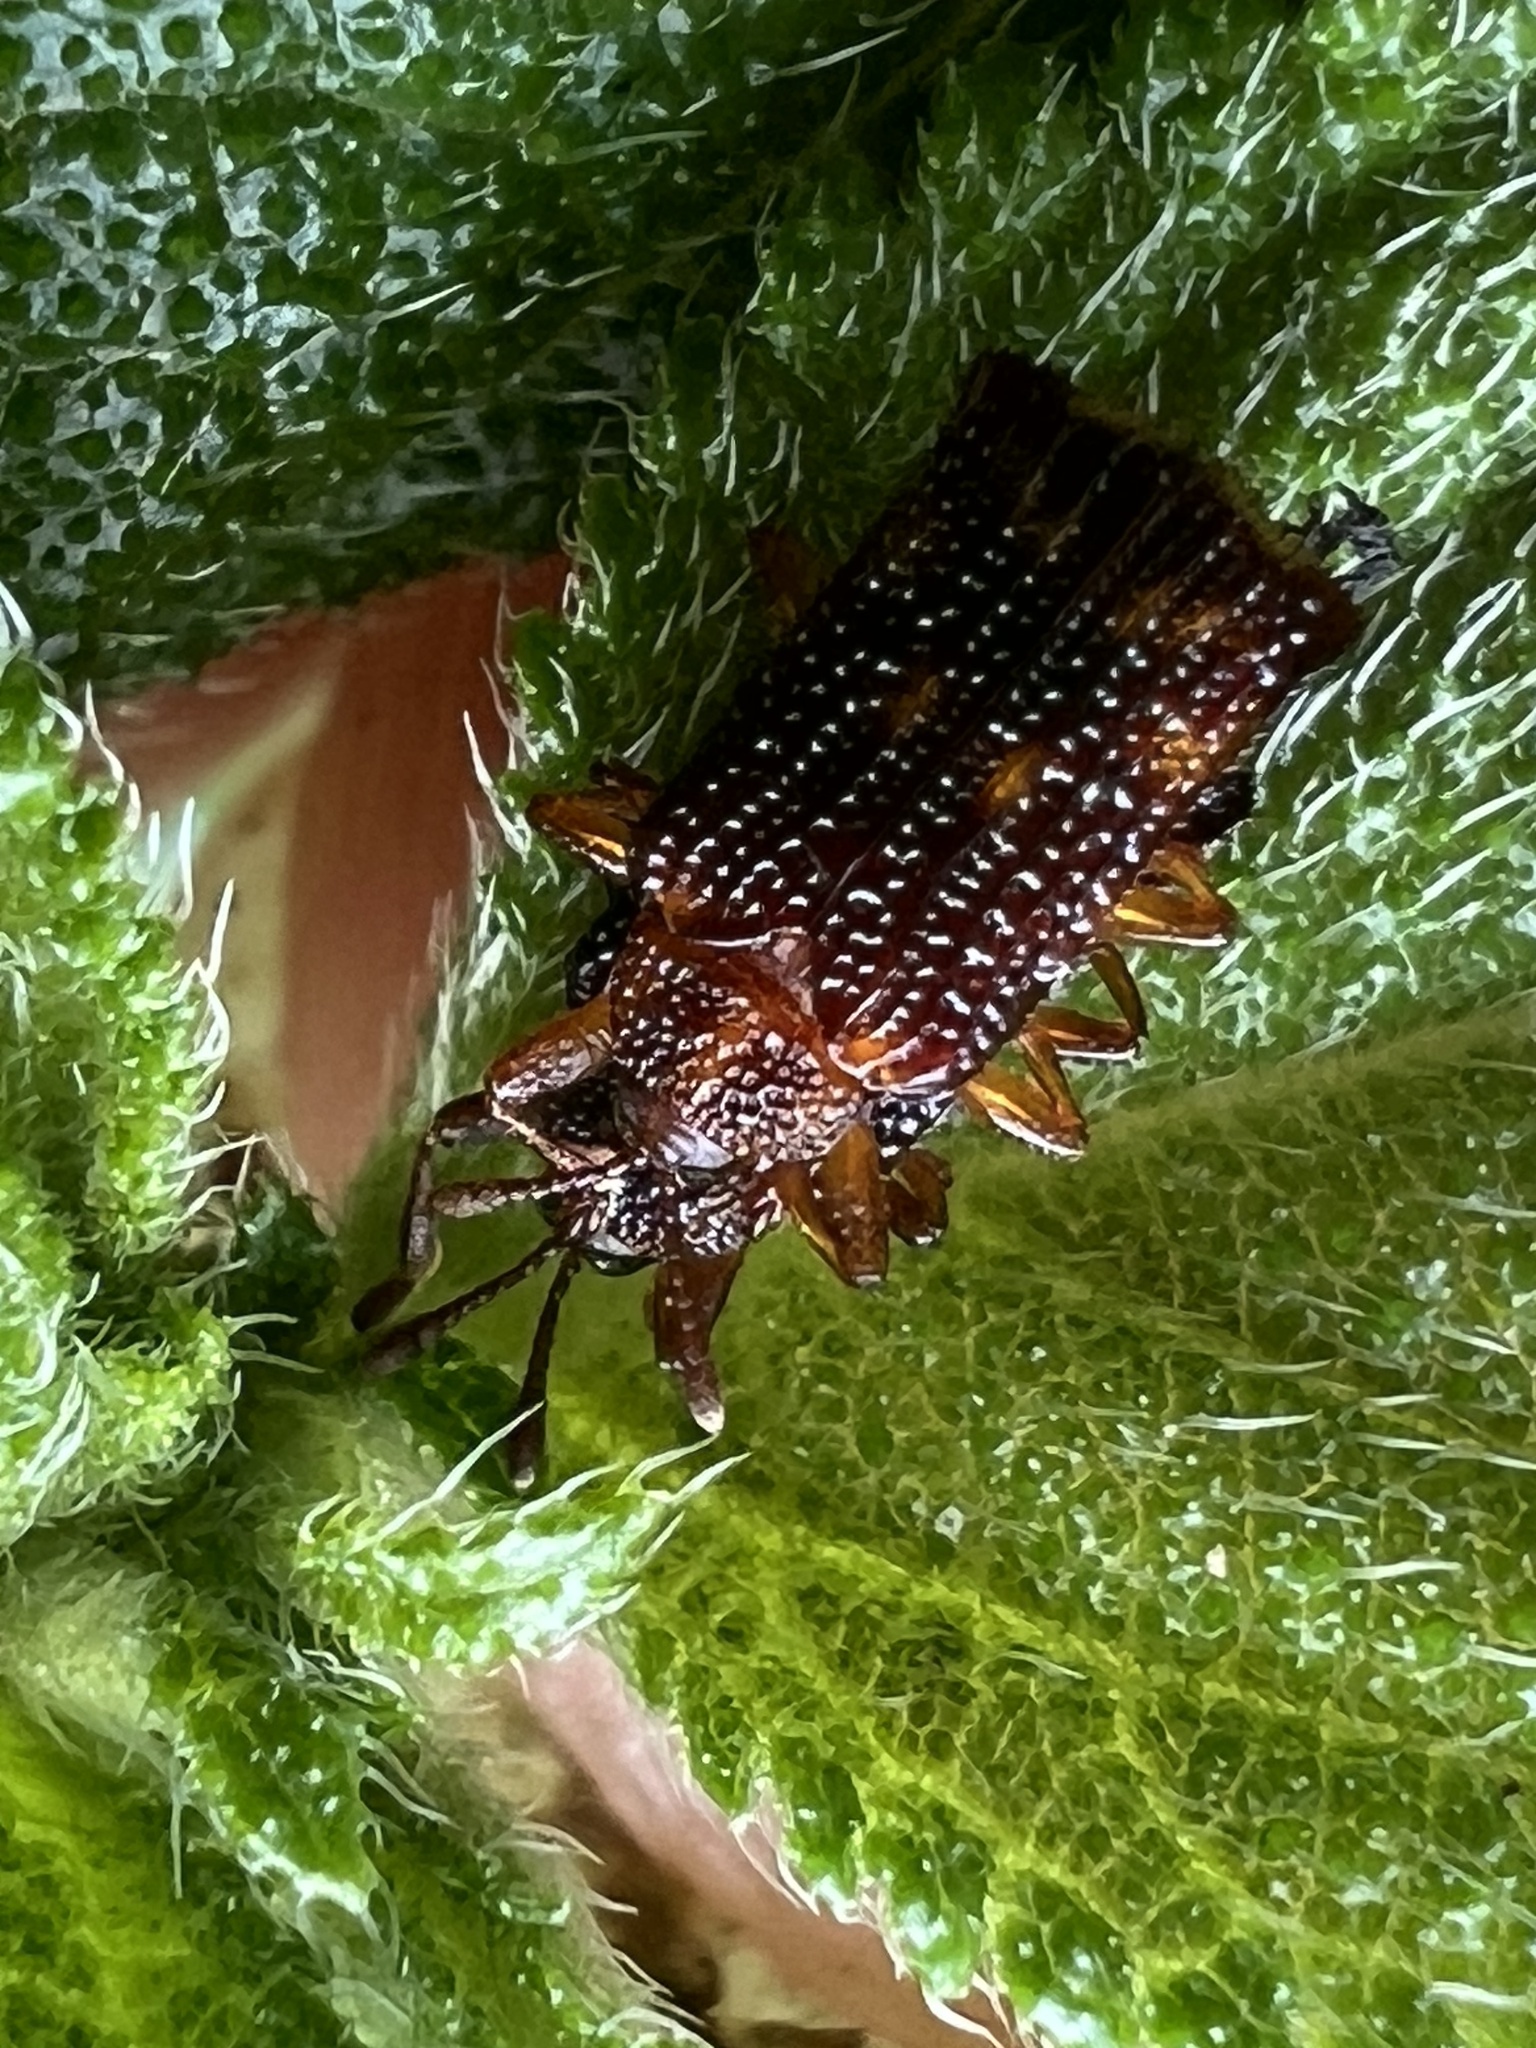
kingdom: Animalia
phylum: Arthropoda
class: Insecta
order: Coleoptera
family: Chrysomelidae
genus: Uroplata
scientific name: Uroplata girardi
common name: Lantana leafminer
